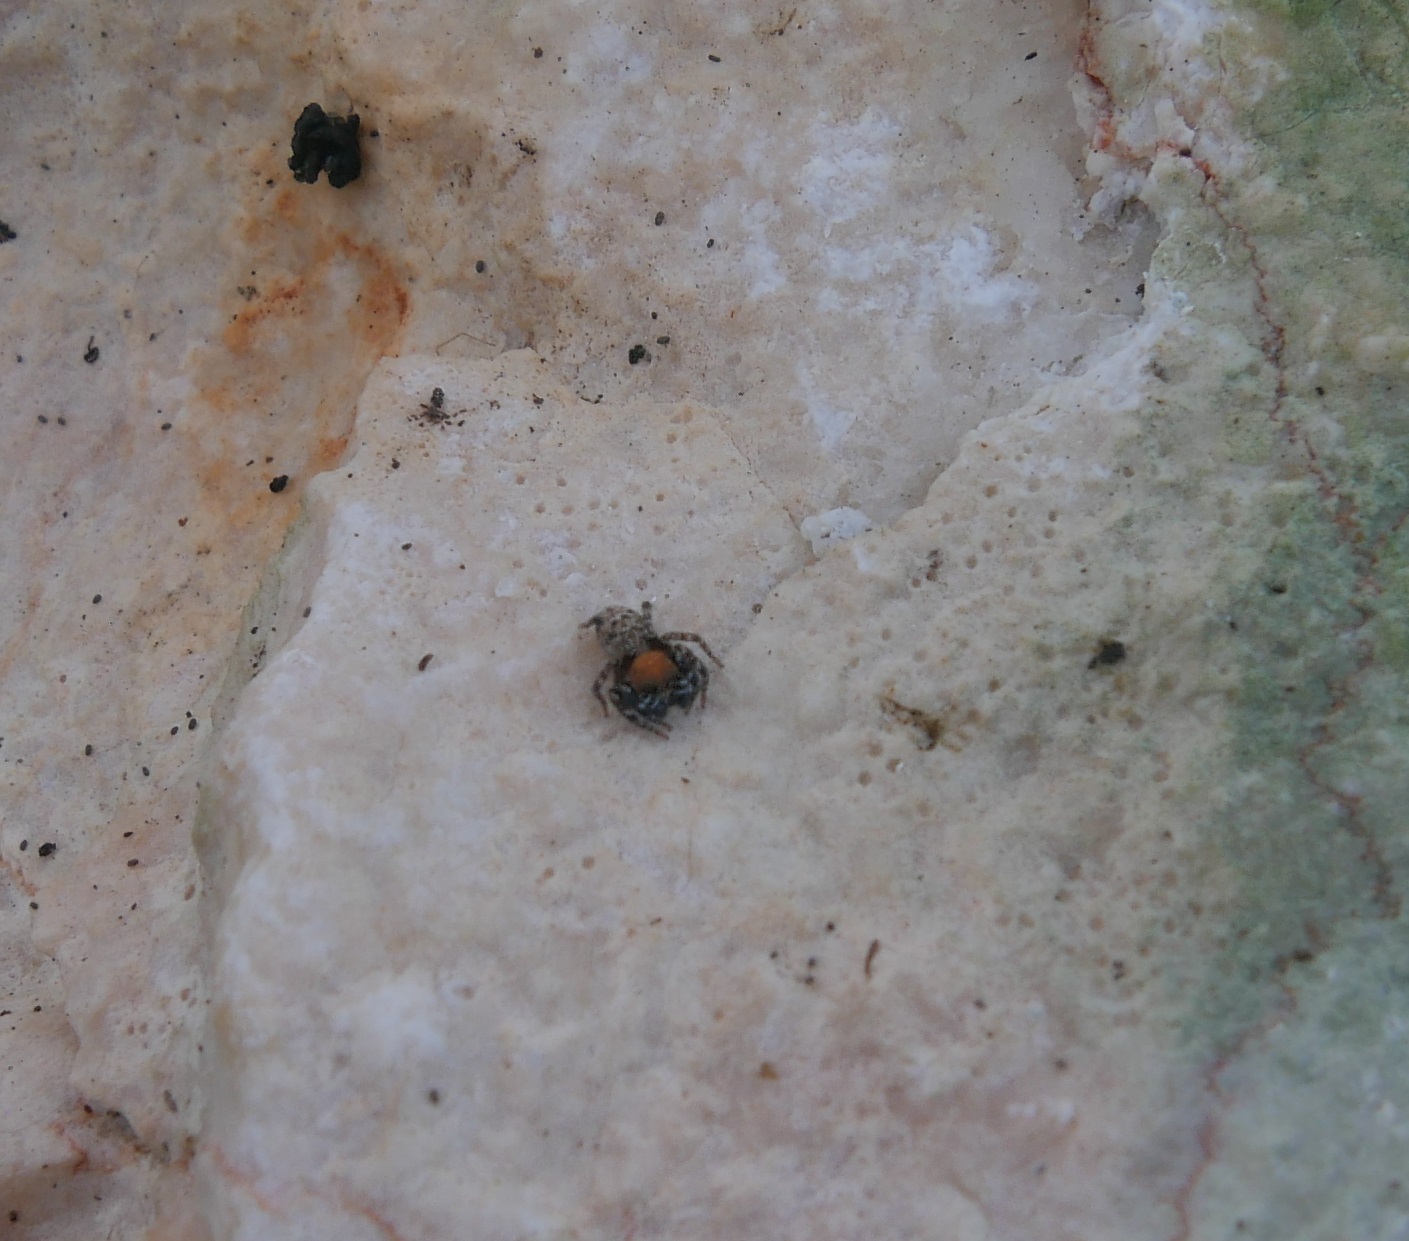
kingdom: Animalia
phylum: Arthropoda
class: Arachnida
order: Araneae
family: Salticidae
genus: Cyrba
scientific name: Cyrba algerina
